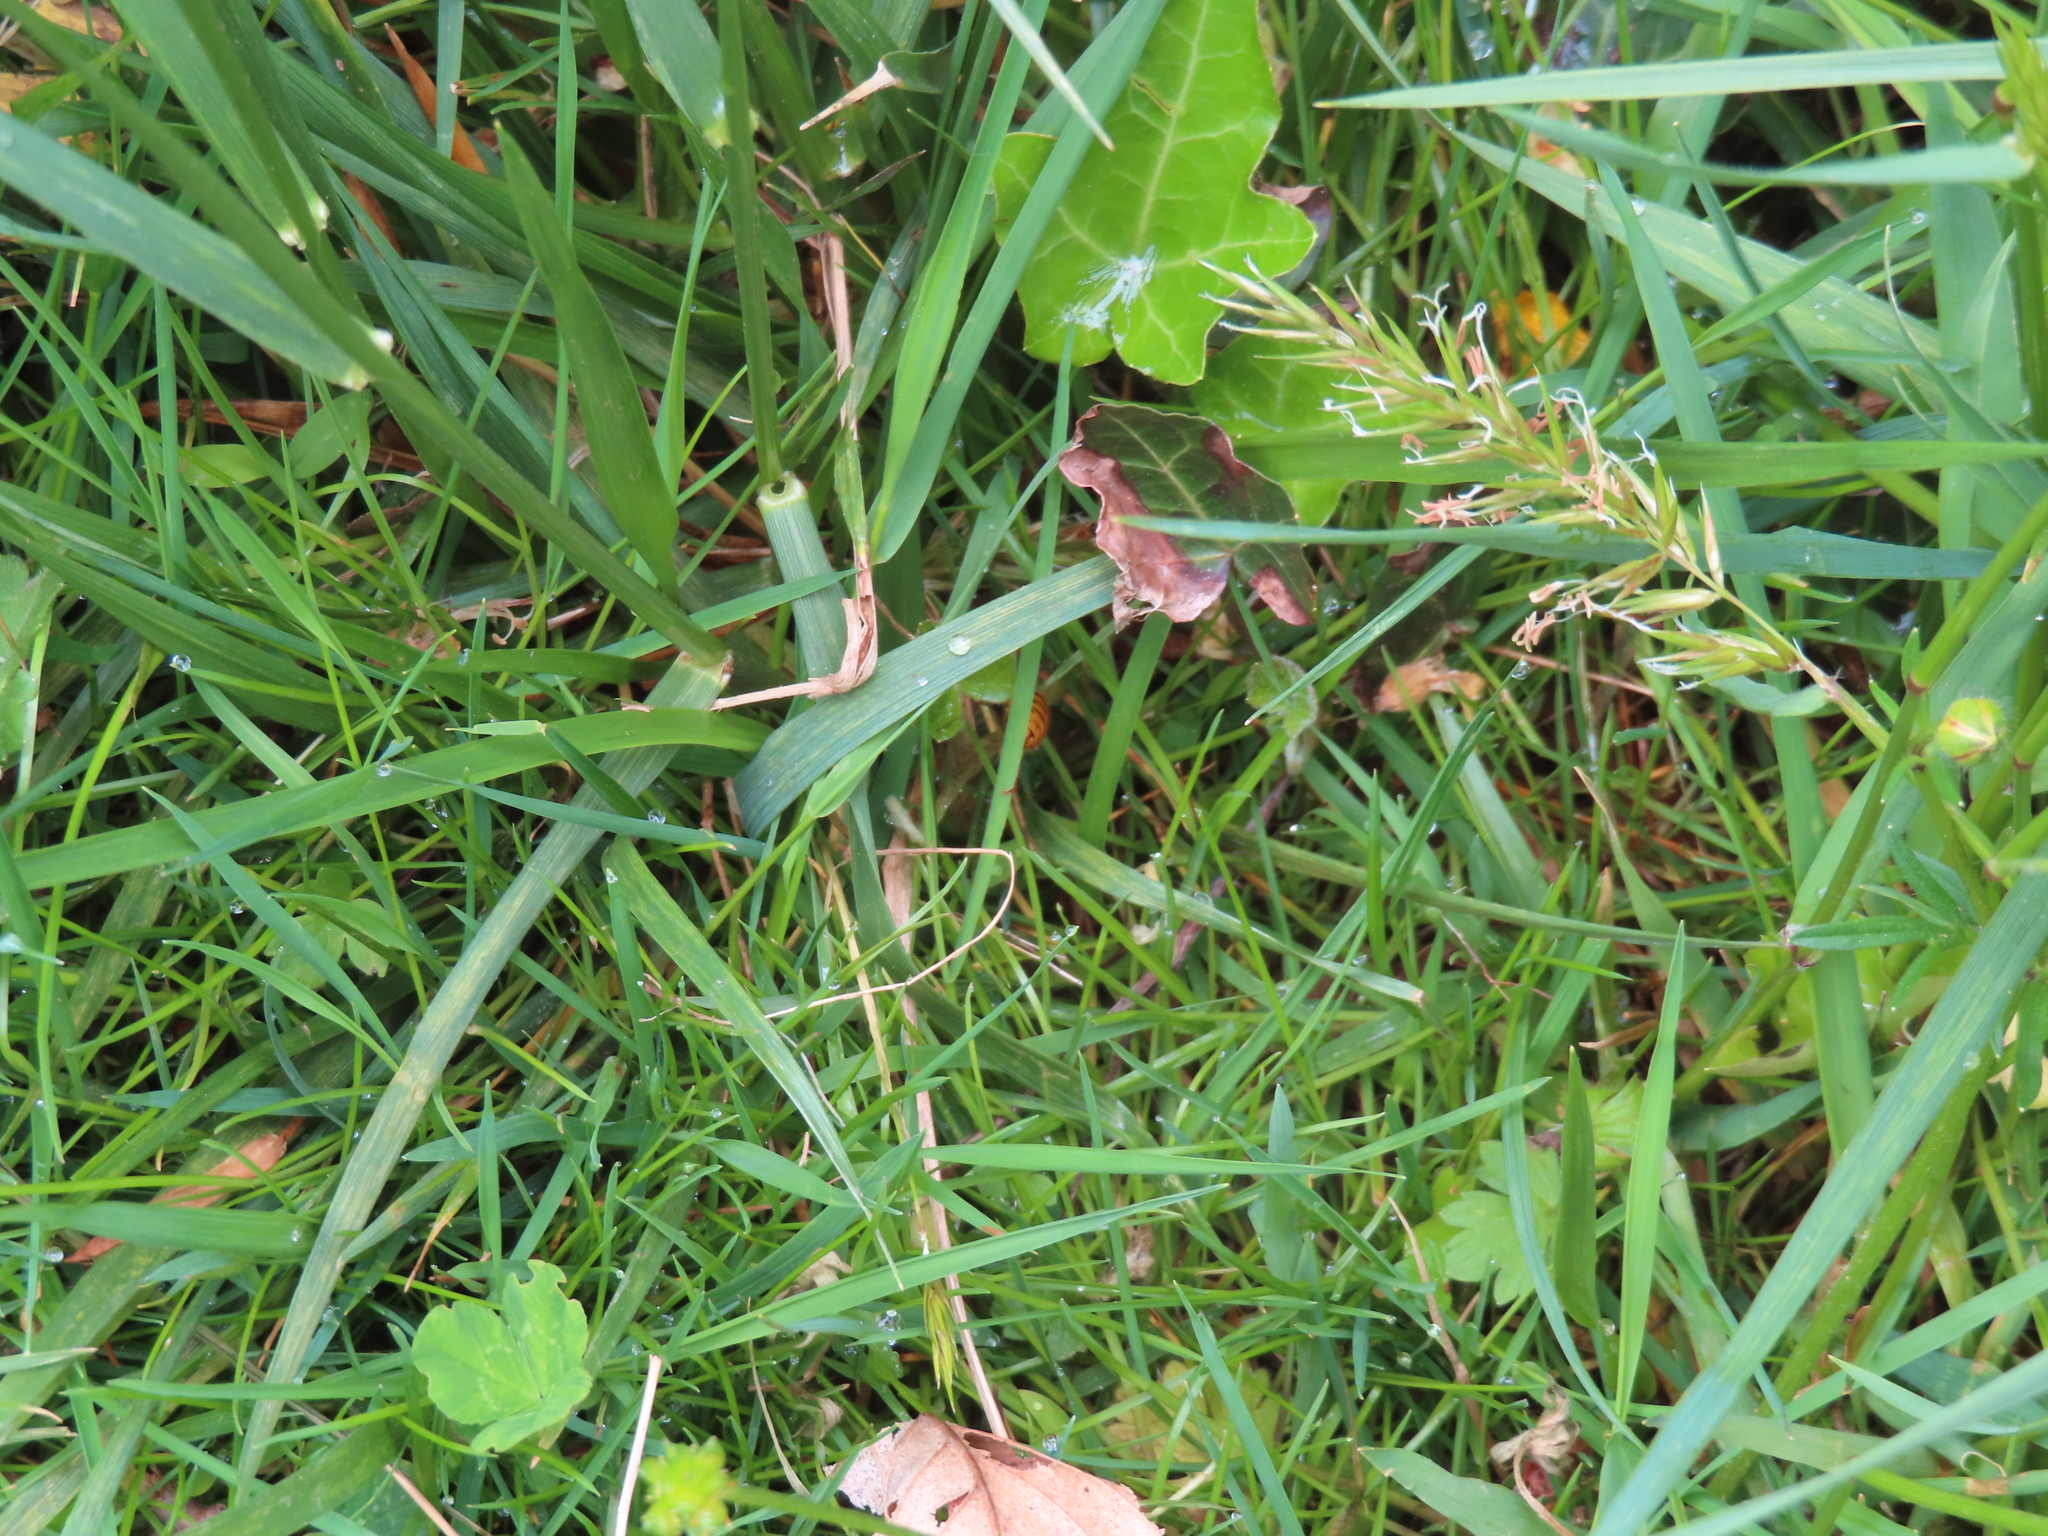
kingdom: Animalia
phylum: Arthropoda
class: Insecta
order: Hymenoptera
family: Vespidae
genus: Vespula
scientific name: Vespula maculifrons
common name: Eastern yellowjacket
